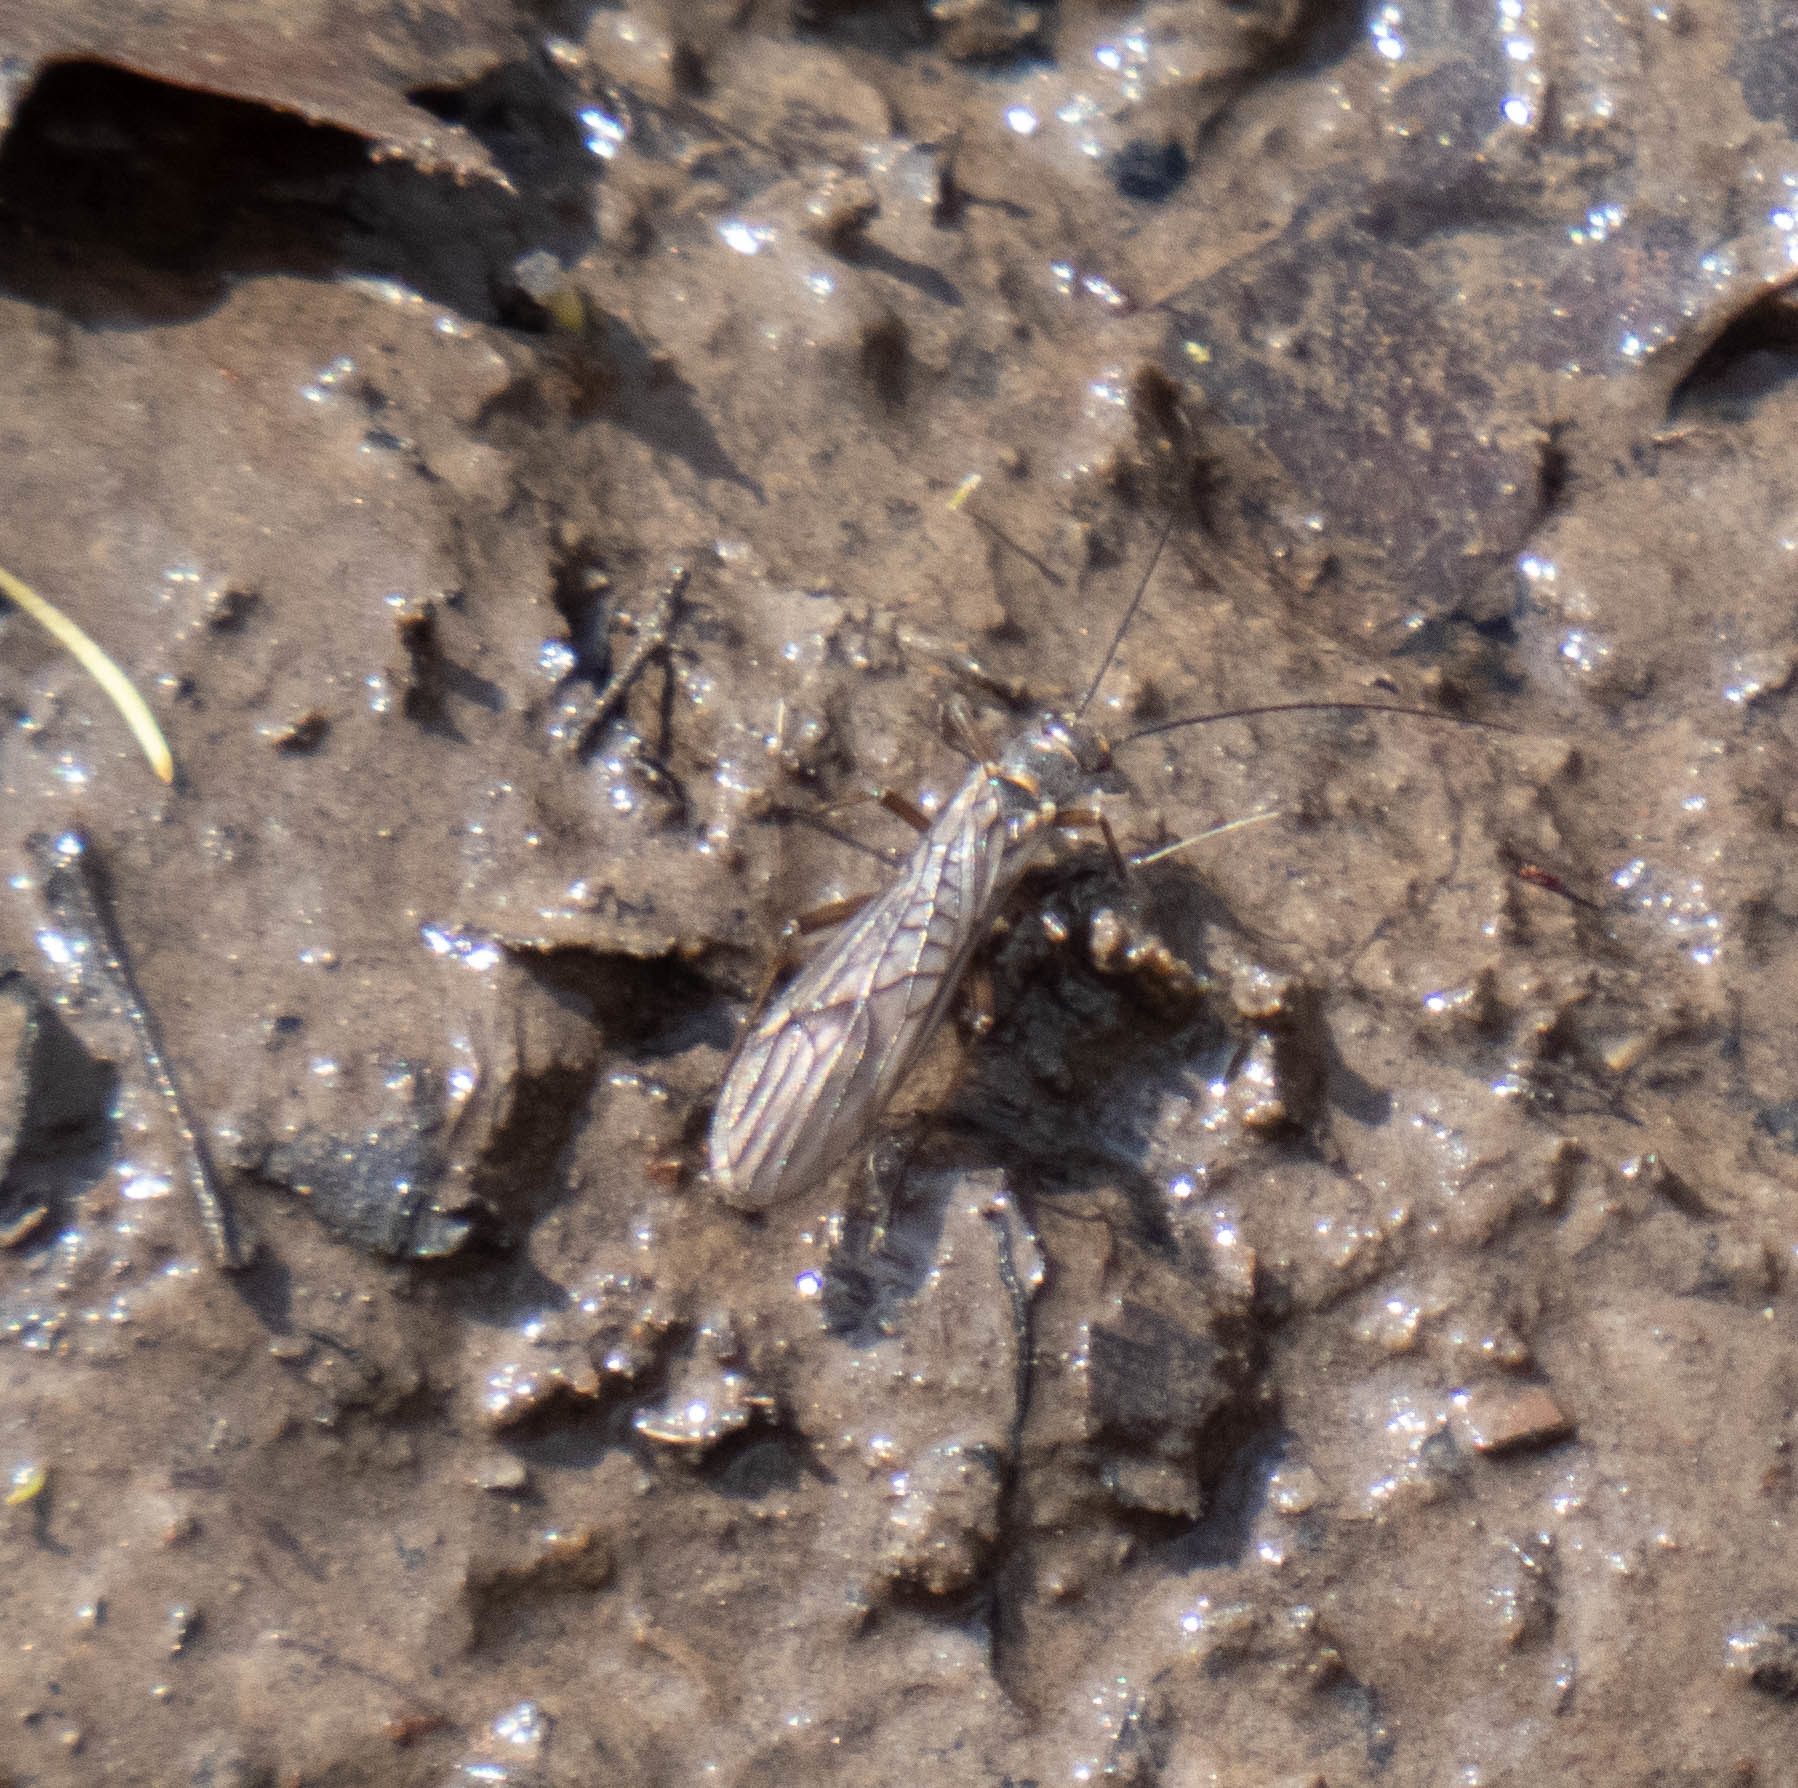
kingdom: Animalia
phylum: Arthropoda
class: Insecta
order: Plecoptera
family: Nemouridae
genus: Soyedina
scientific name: Soyedina
